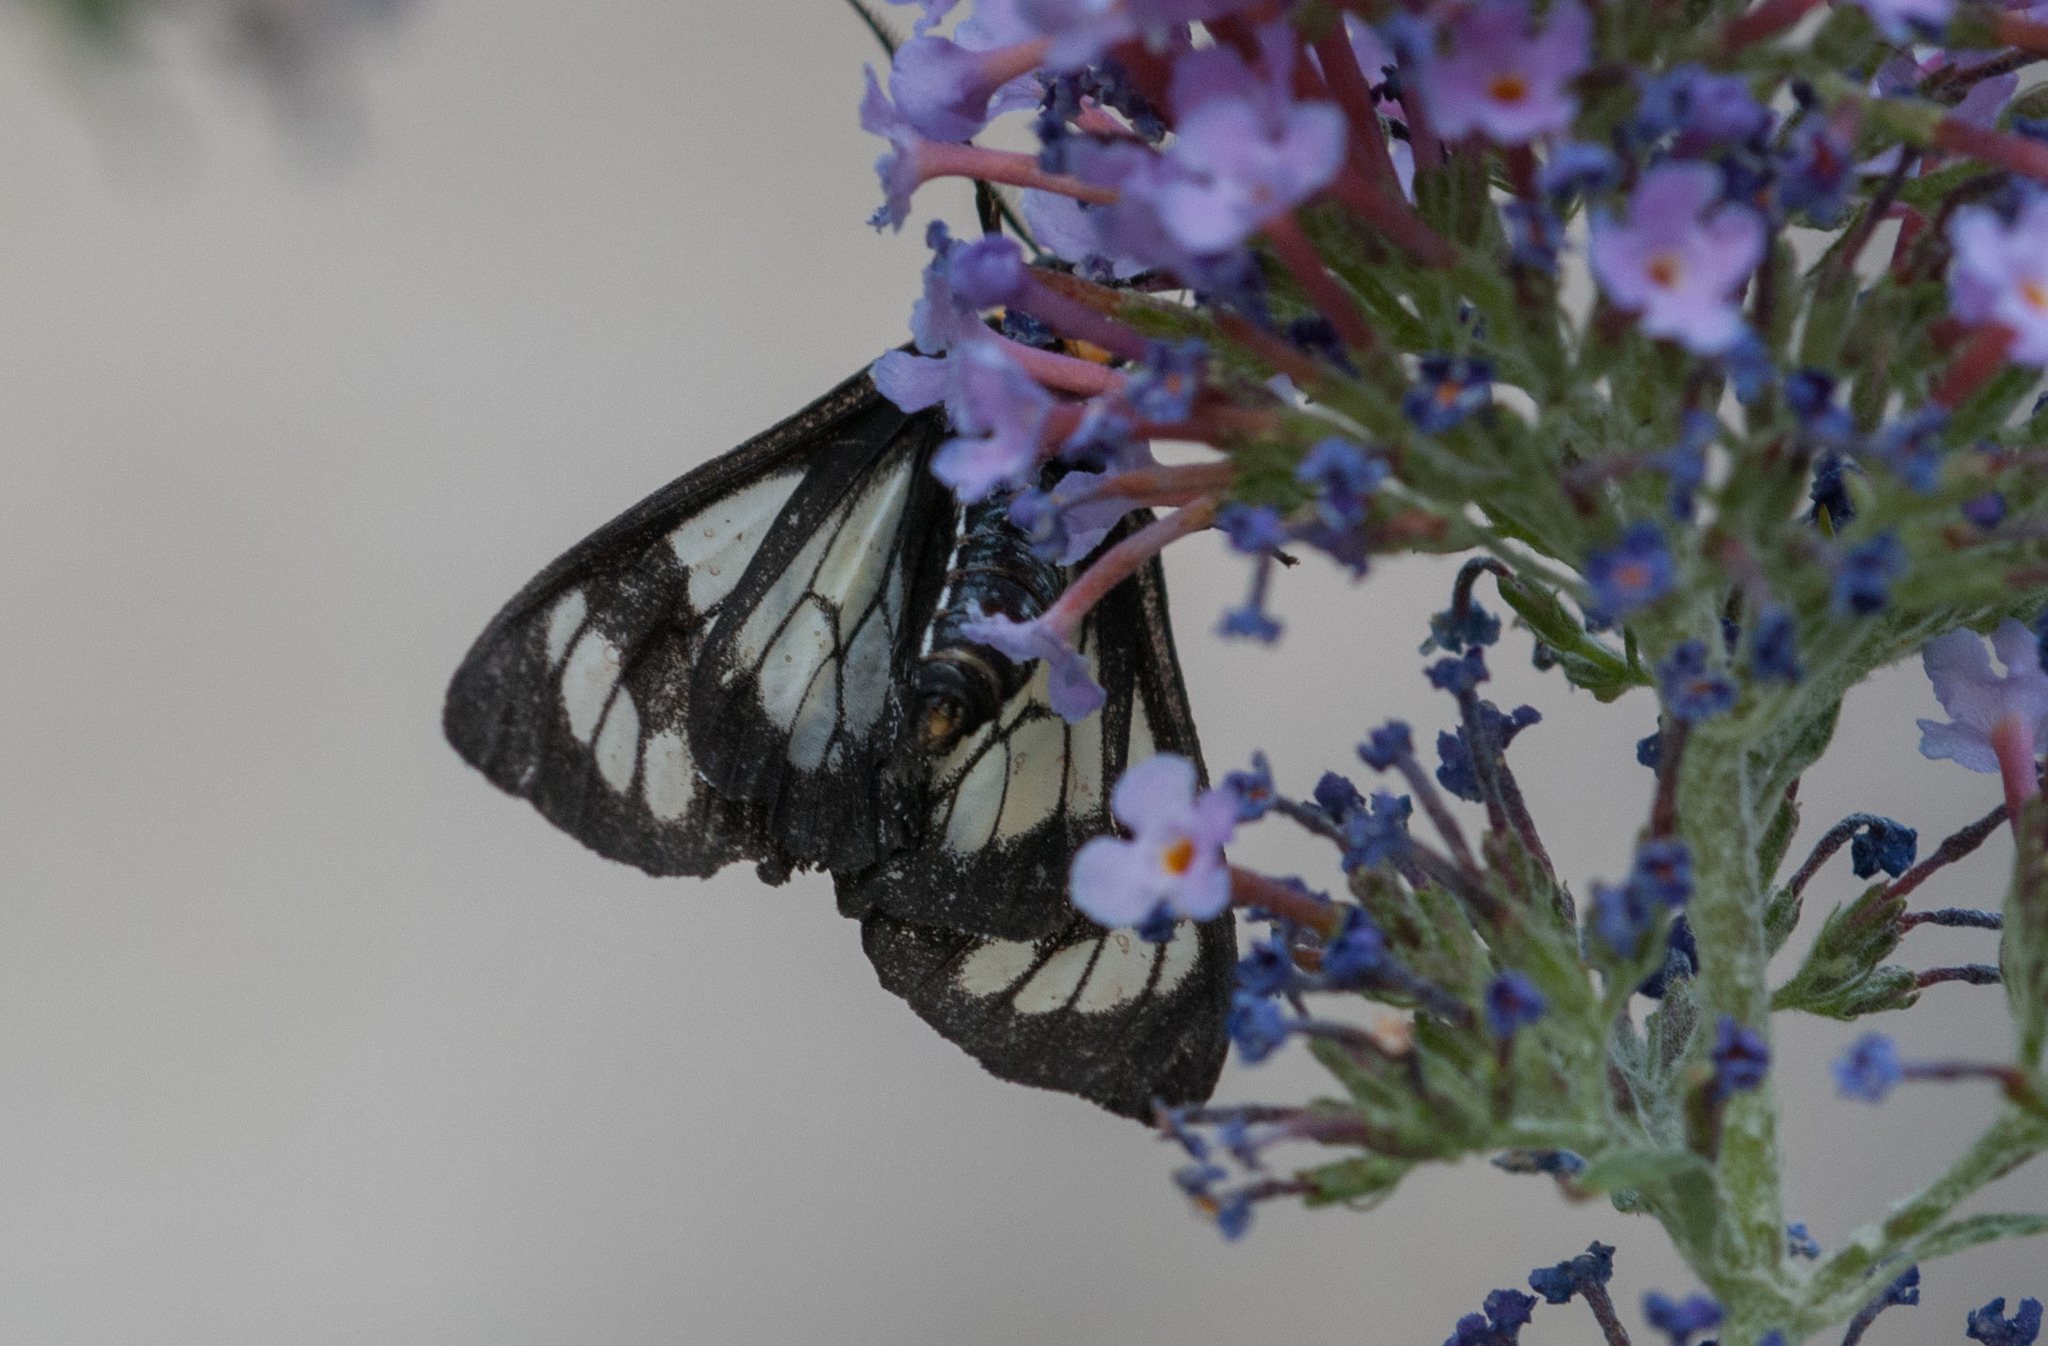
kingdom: Animalia
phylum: Arthropoda
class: Insecta
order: Lepidoptera
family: Erebidae
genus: Gnophaela
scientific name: Gnophaela vermiculata
